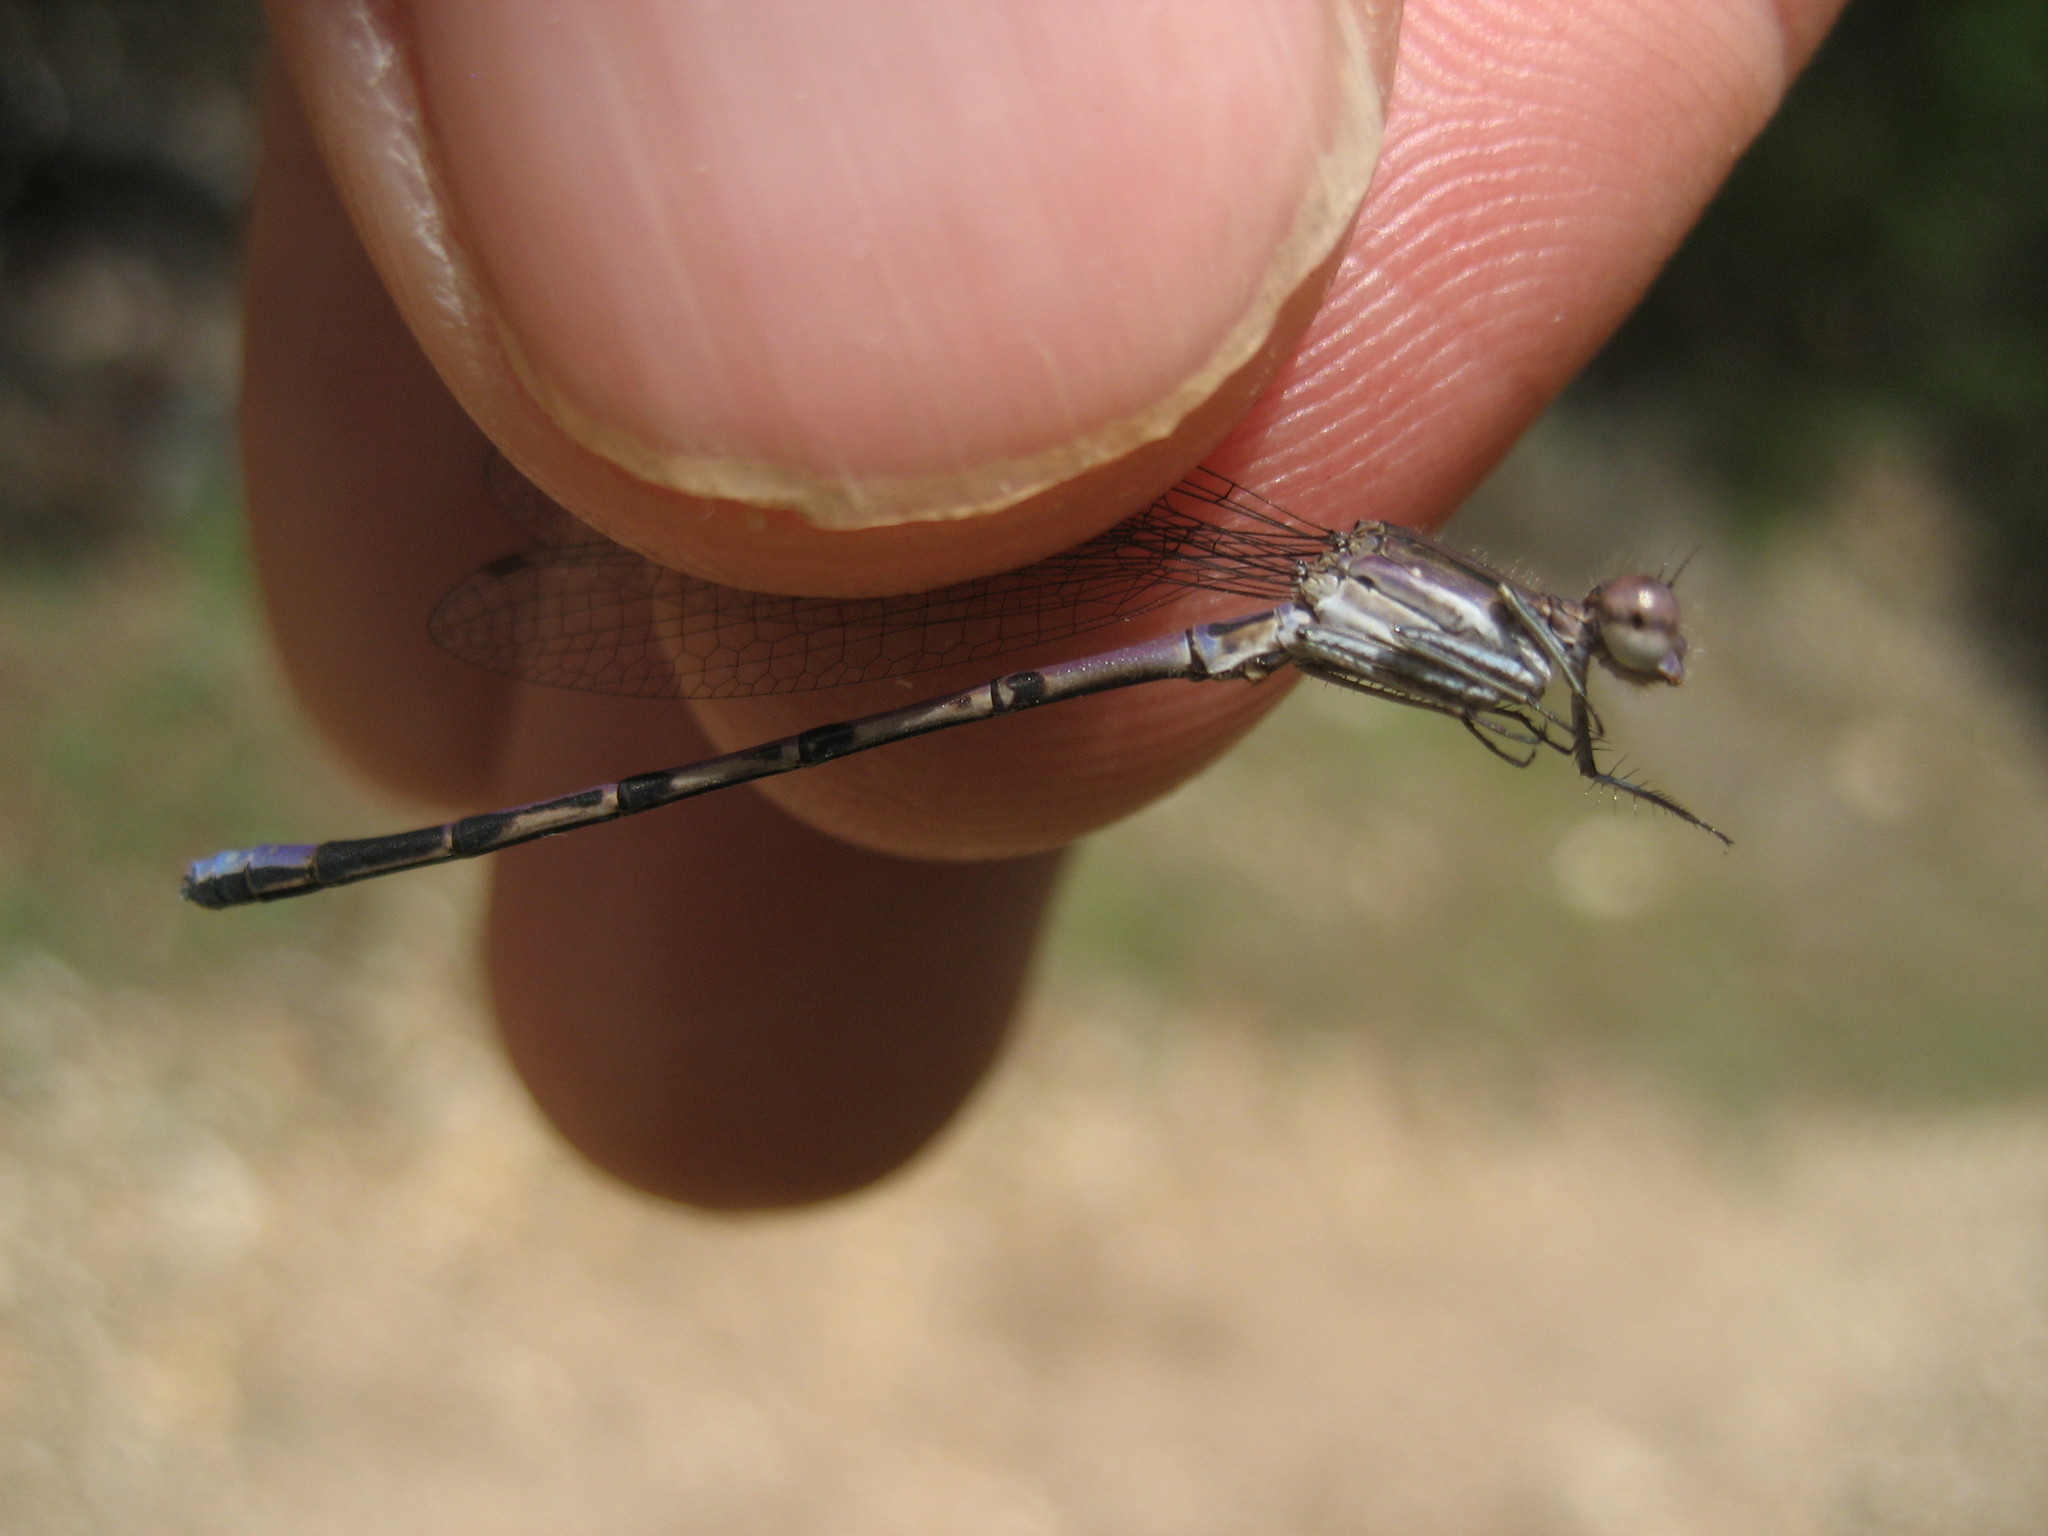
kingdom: Animalia
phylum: Arthropoda
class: Insecta
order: Odonata
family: Coenagrionidae
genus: Argia
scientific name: Argia fumipennis
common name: Variable dancer
